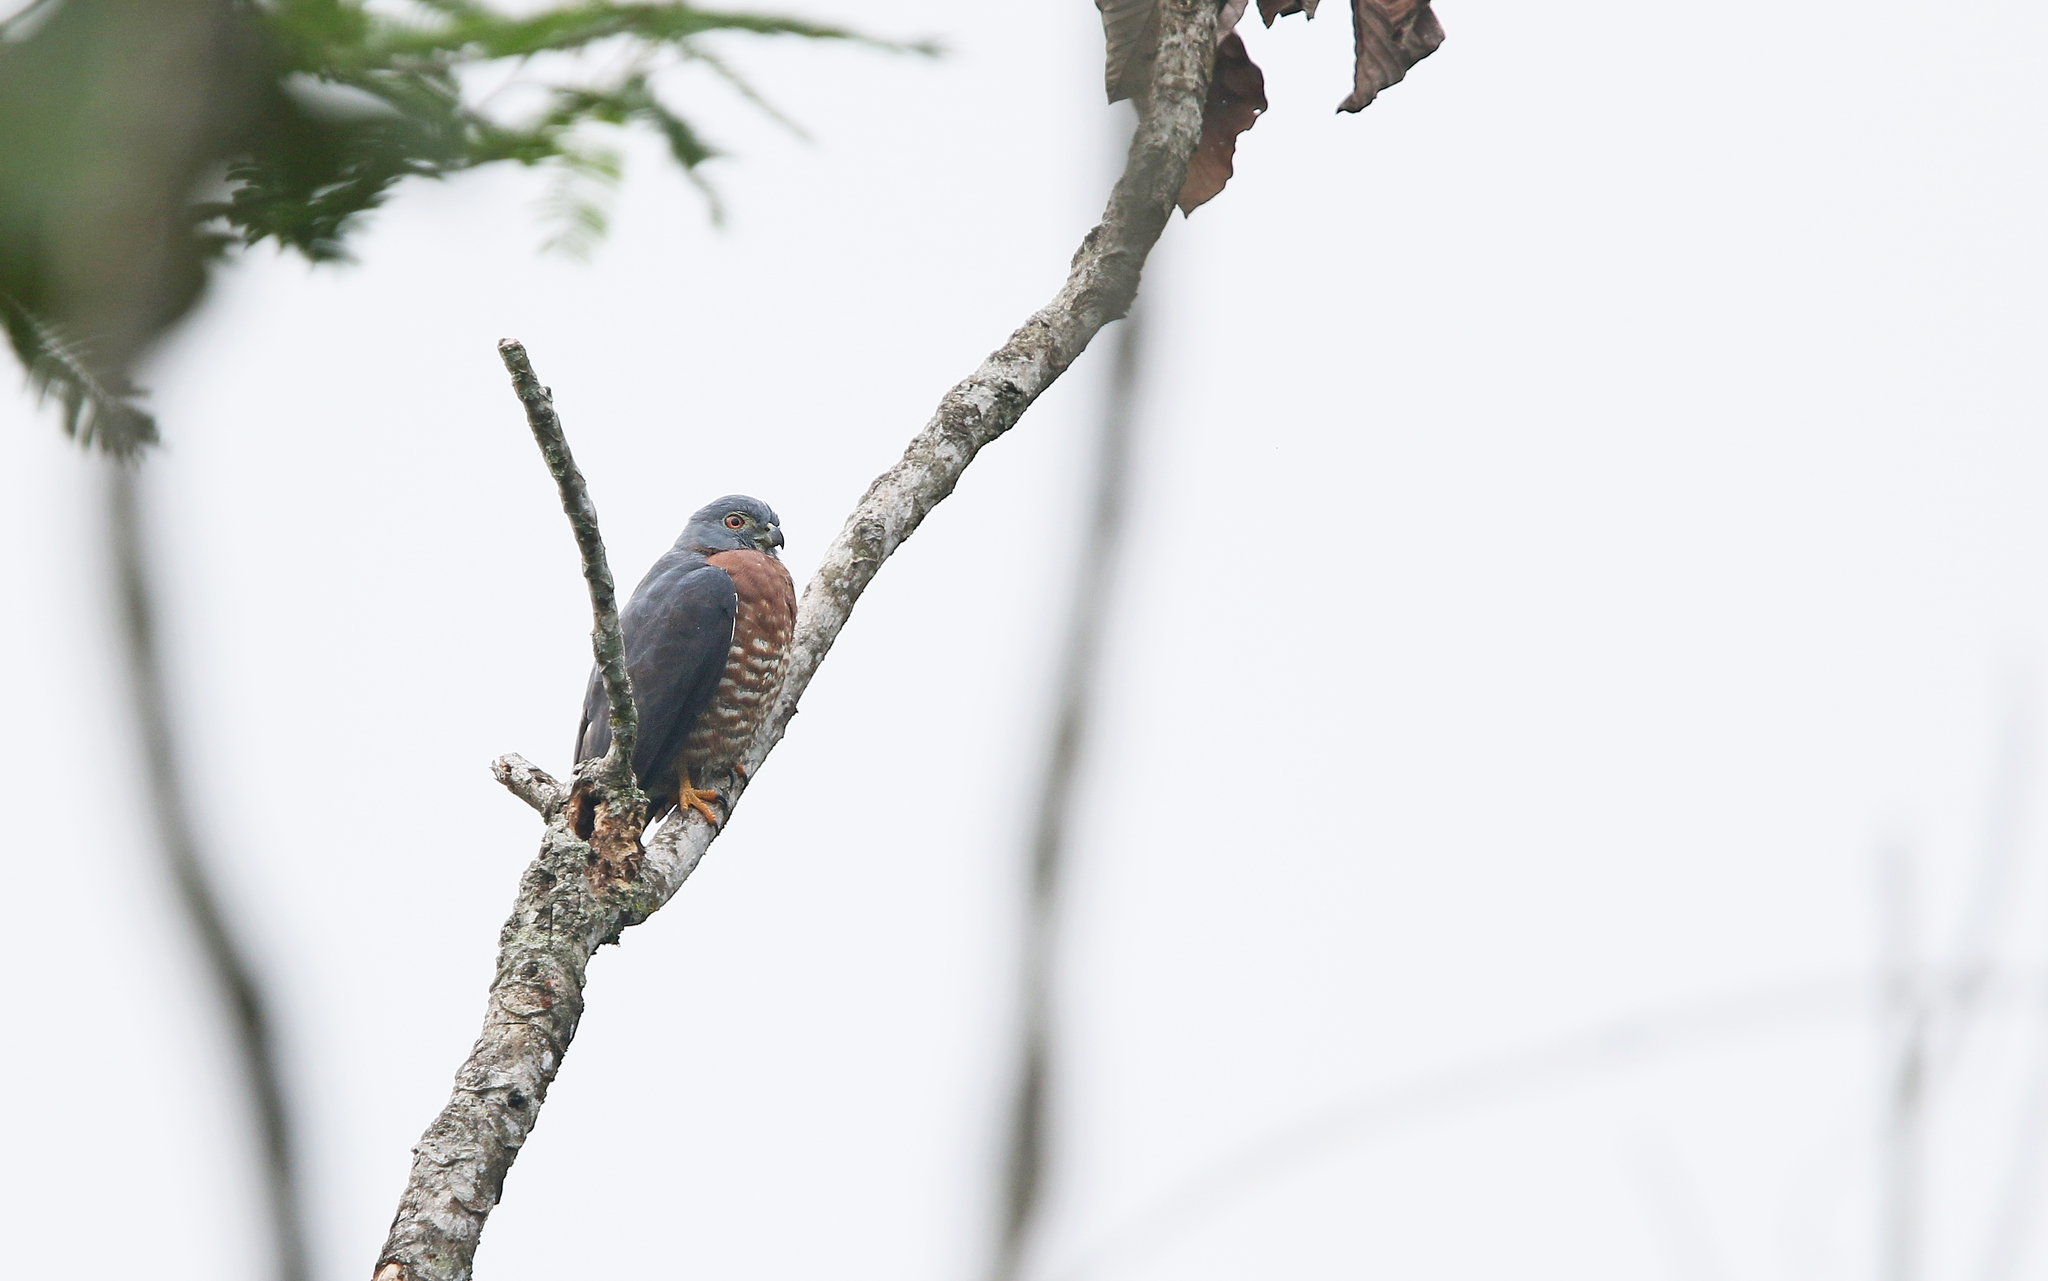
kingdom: Animalia
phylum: Chordata
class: Aves
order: Accipitriformes
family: Accipitridae
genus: Harpagus
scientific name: Harpagus bidentatus
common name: Double-toothed kite
